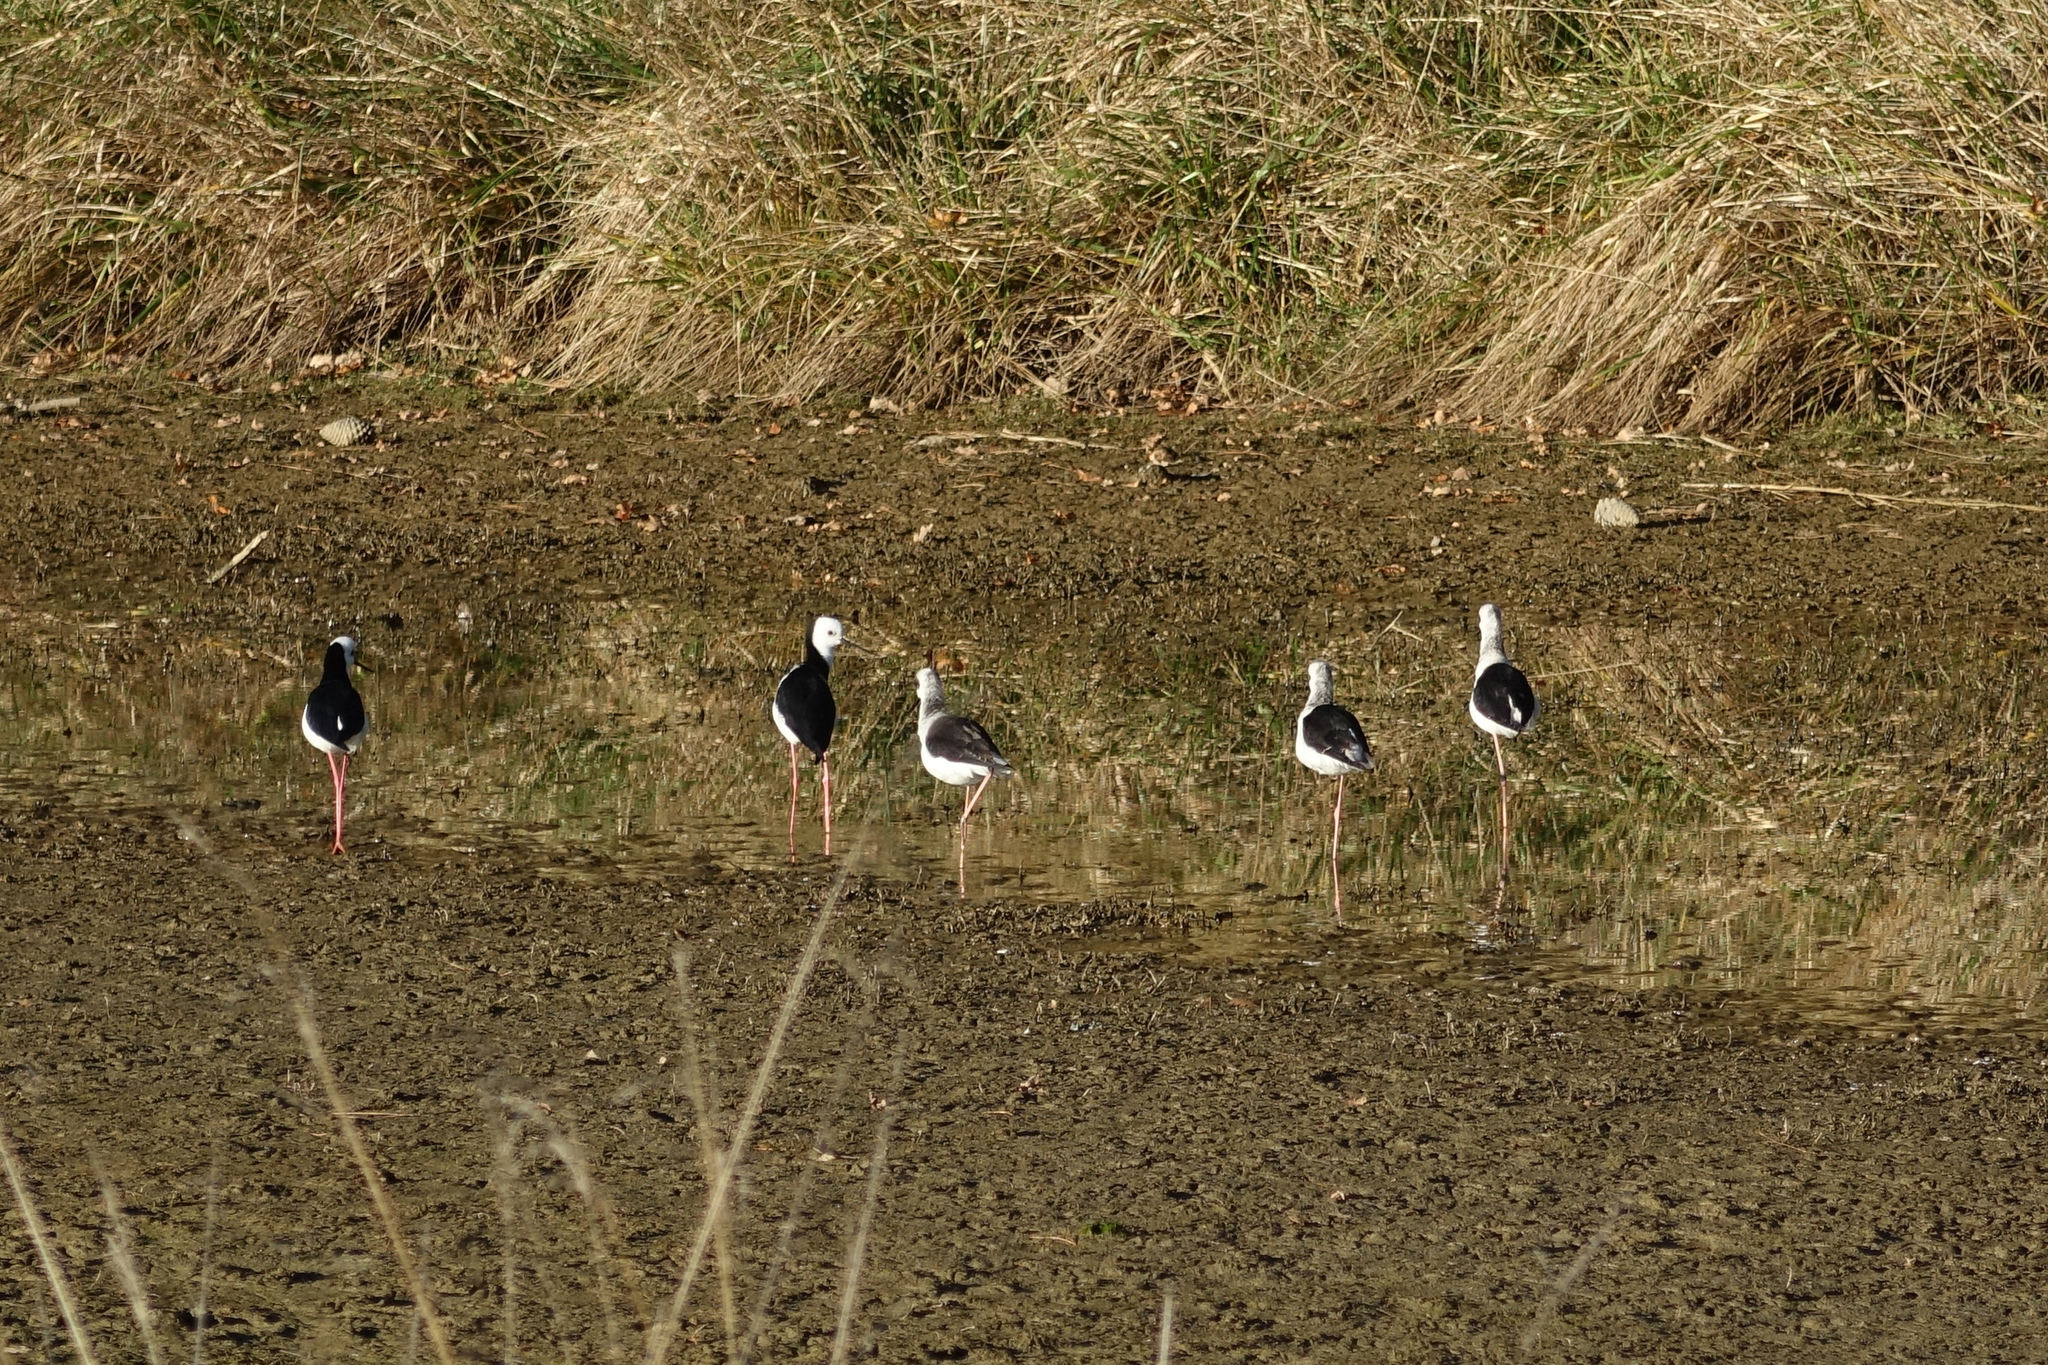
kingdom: Animalia
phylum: Chordata
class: Aves
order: Charadriiformes
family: Recurvirostridae
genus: Himantopus
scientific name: Himantopus leucocephalus
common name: White-headed stilt
